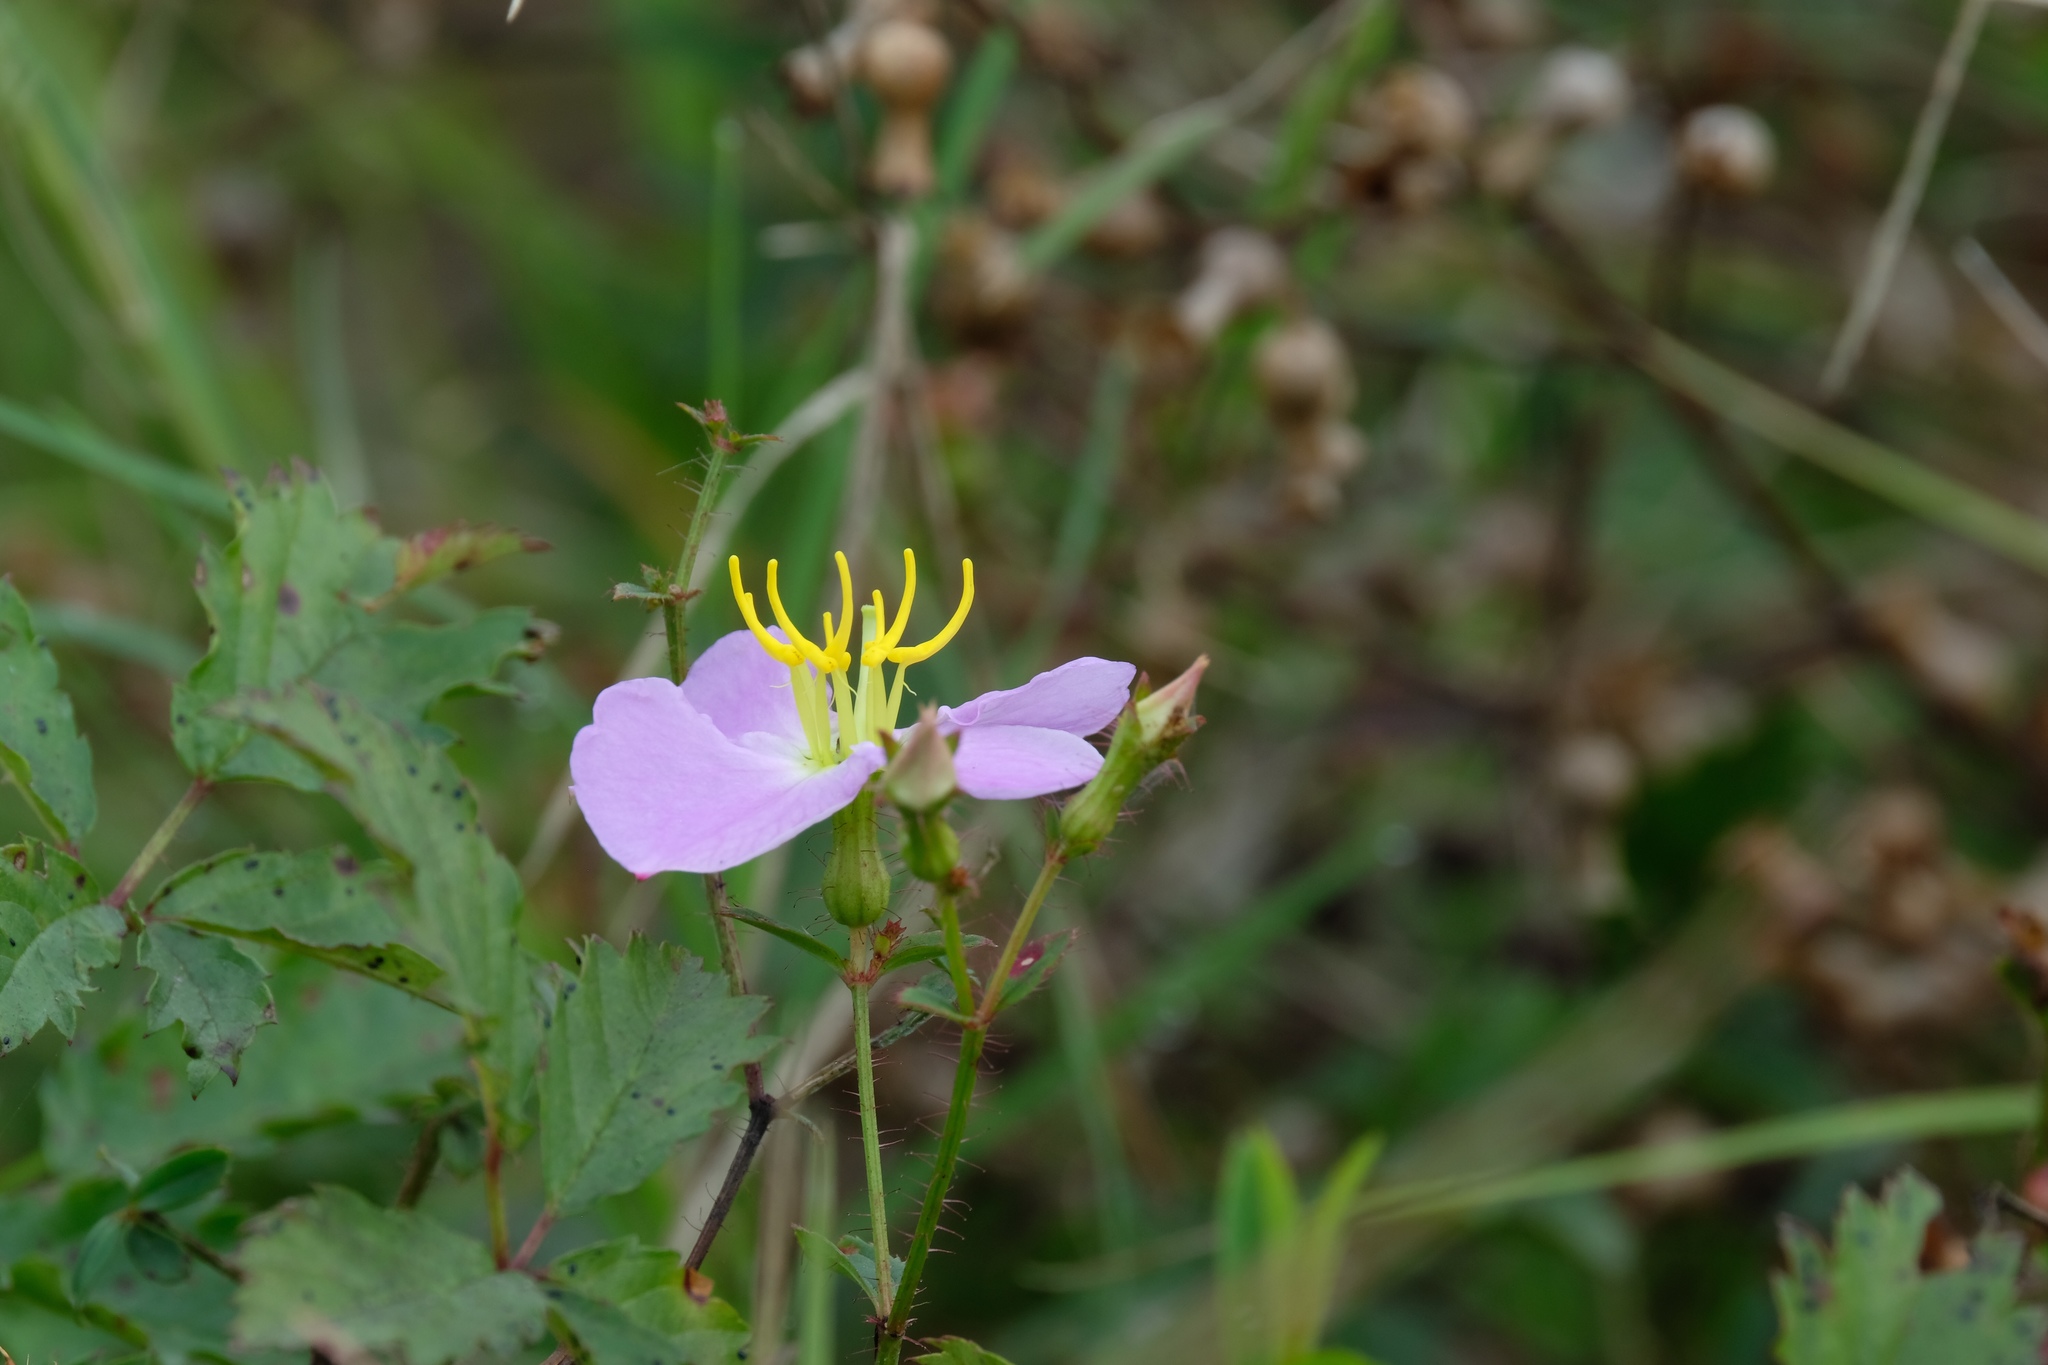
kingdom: Plantae
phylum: Tracheophyta
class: Magnoliopsida
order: Myrtales
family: Melastomataceae
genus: Rhexia
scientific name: Rhexia mariana
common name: Dull meadow-pitcher
